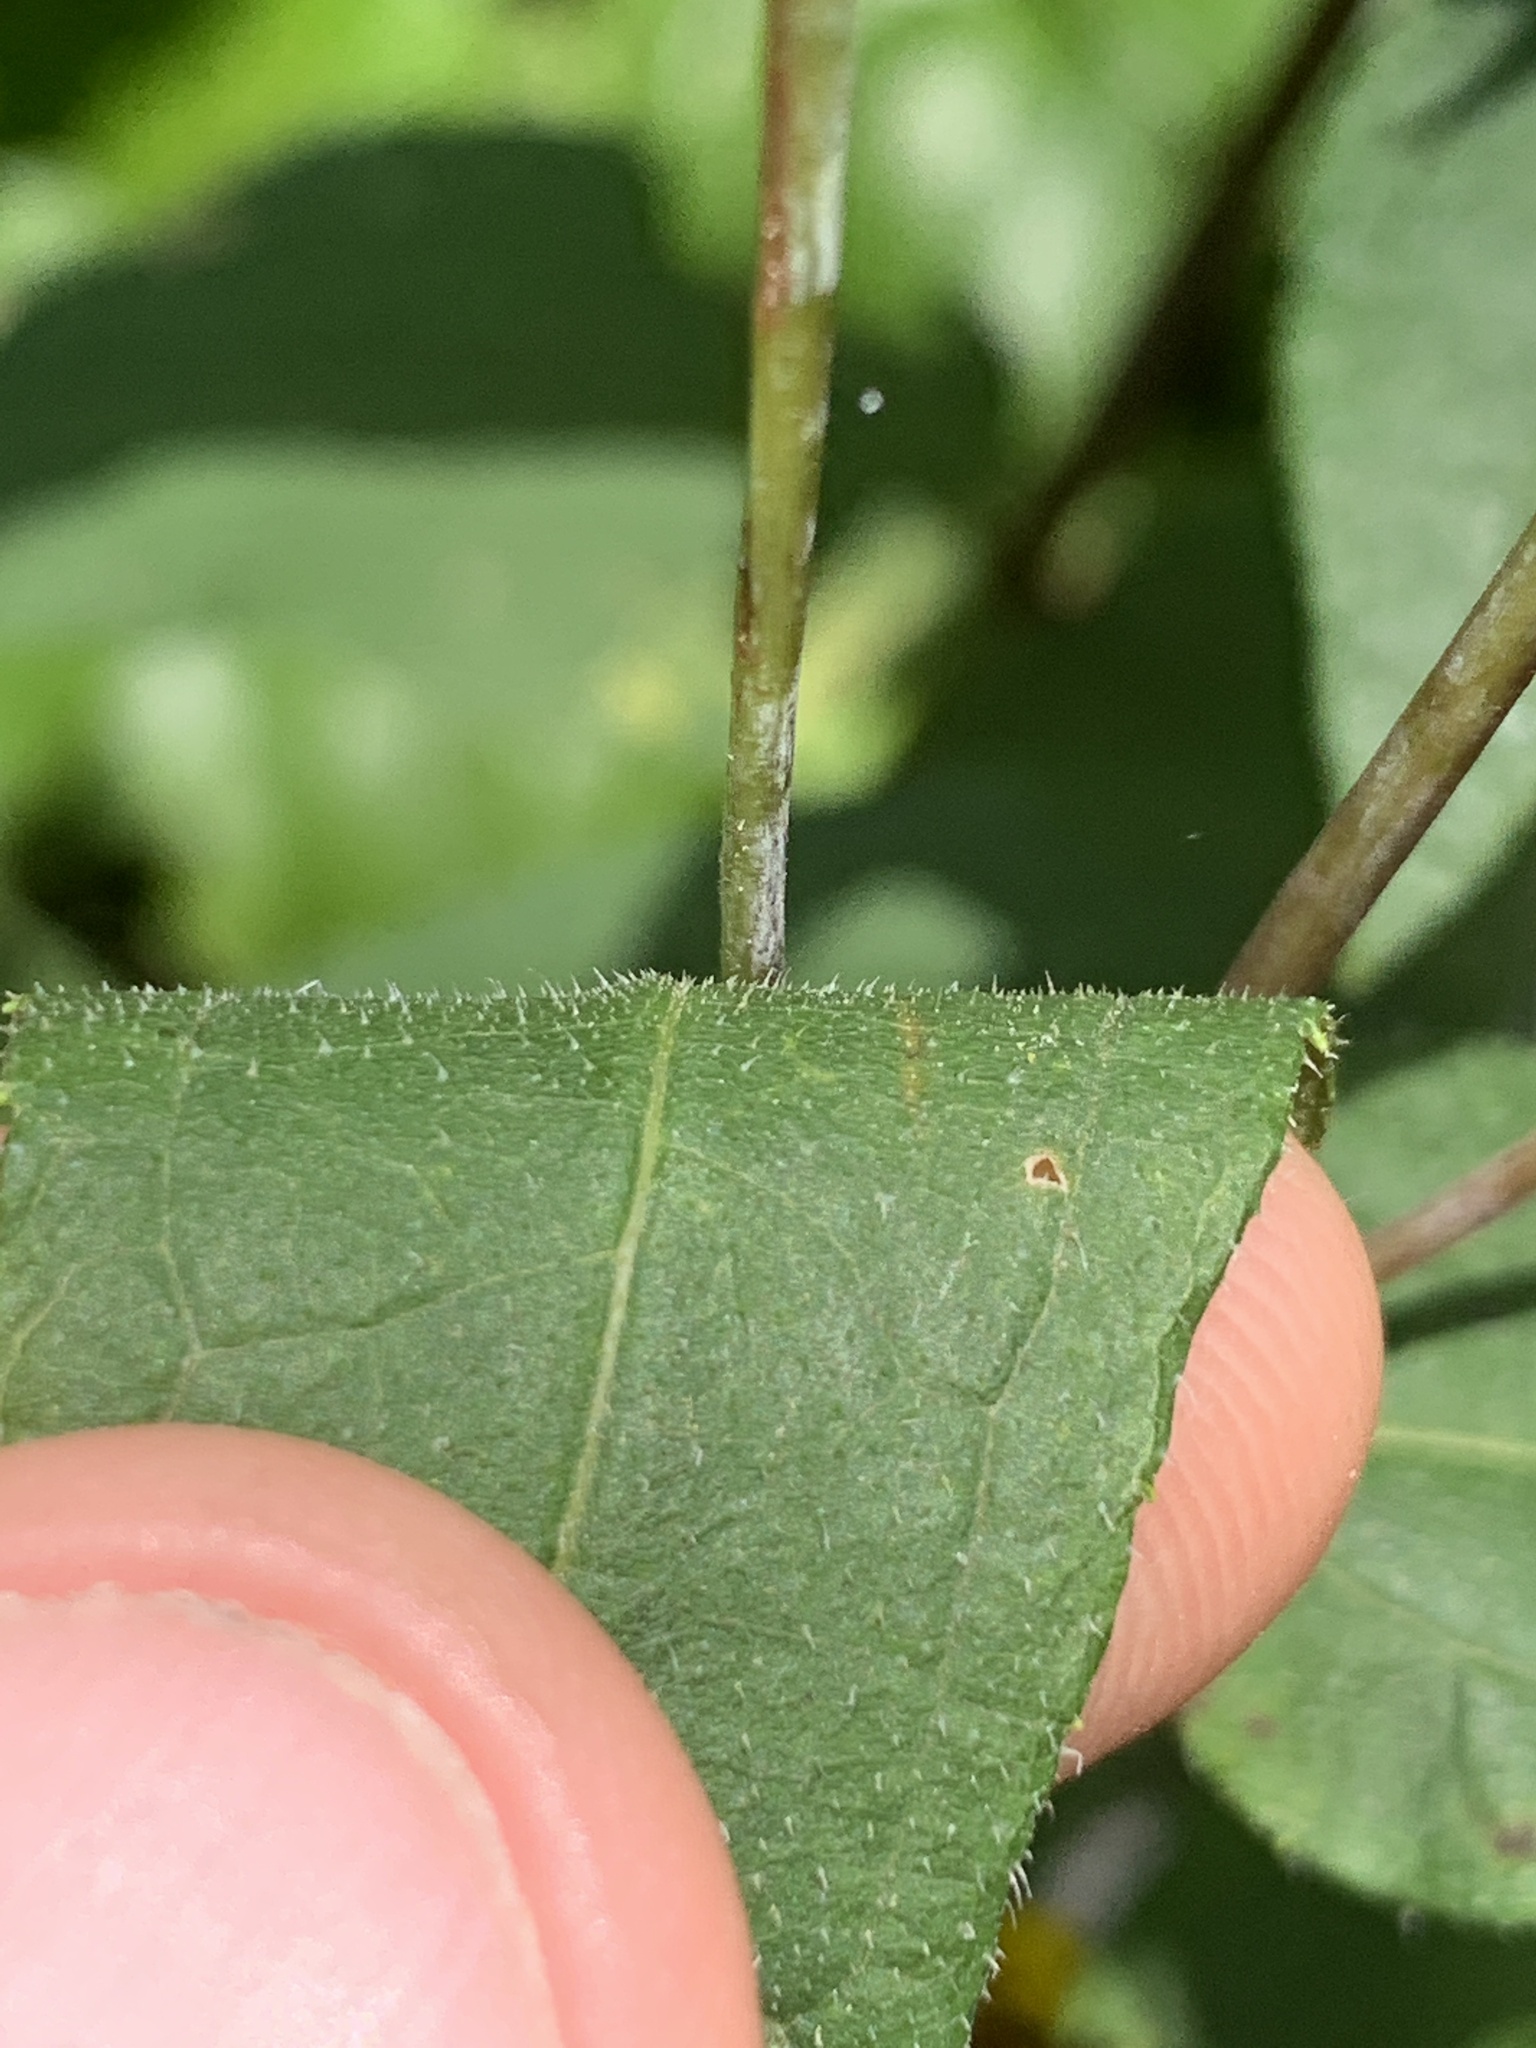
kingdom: Plantae
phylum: Tracheophyta
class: Magnoliopsida
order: Asterales
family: Asteraceae
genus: Helianthus
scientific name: Helianthus divaricatus
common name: Divergent sunflower
